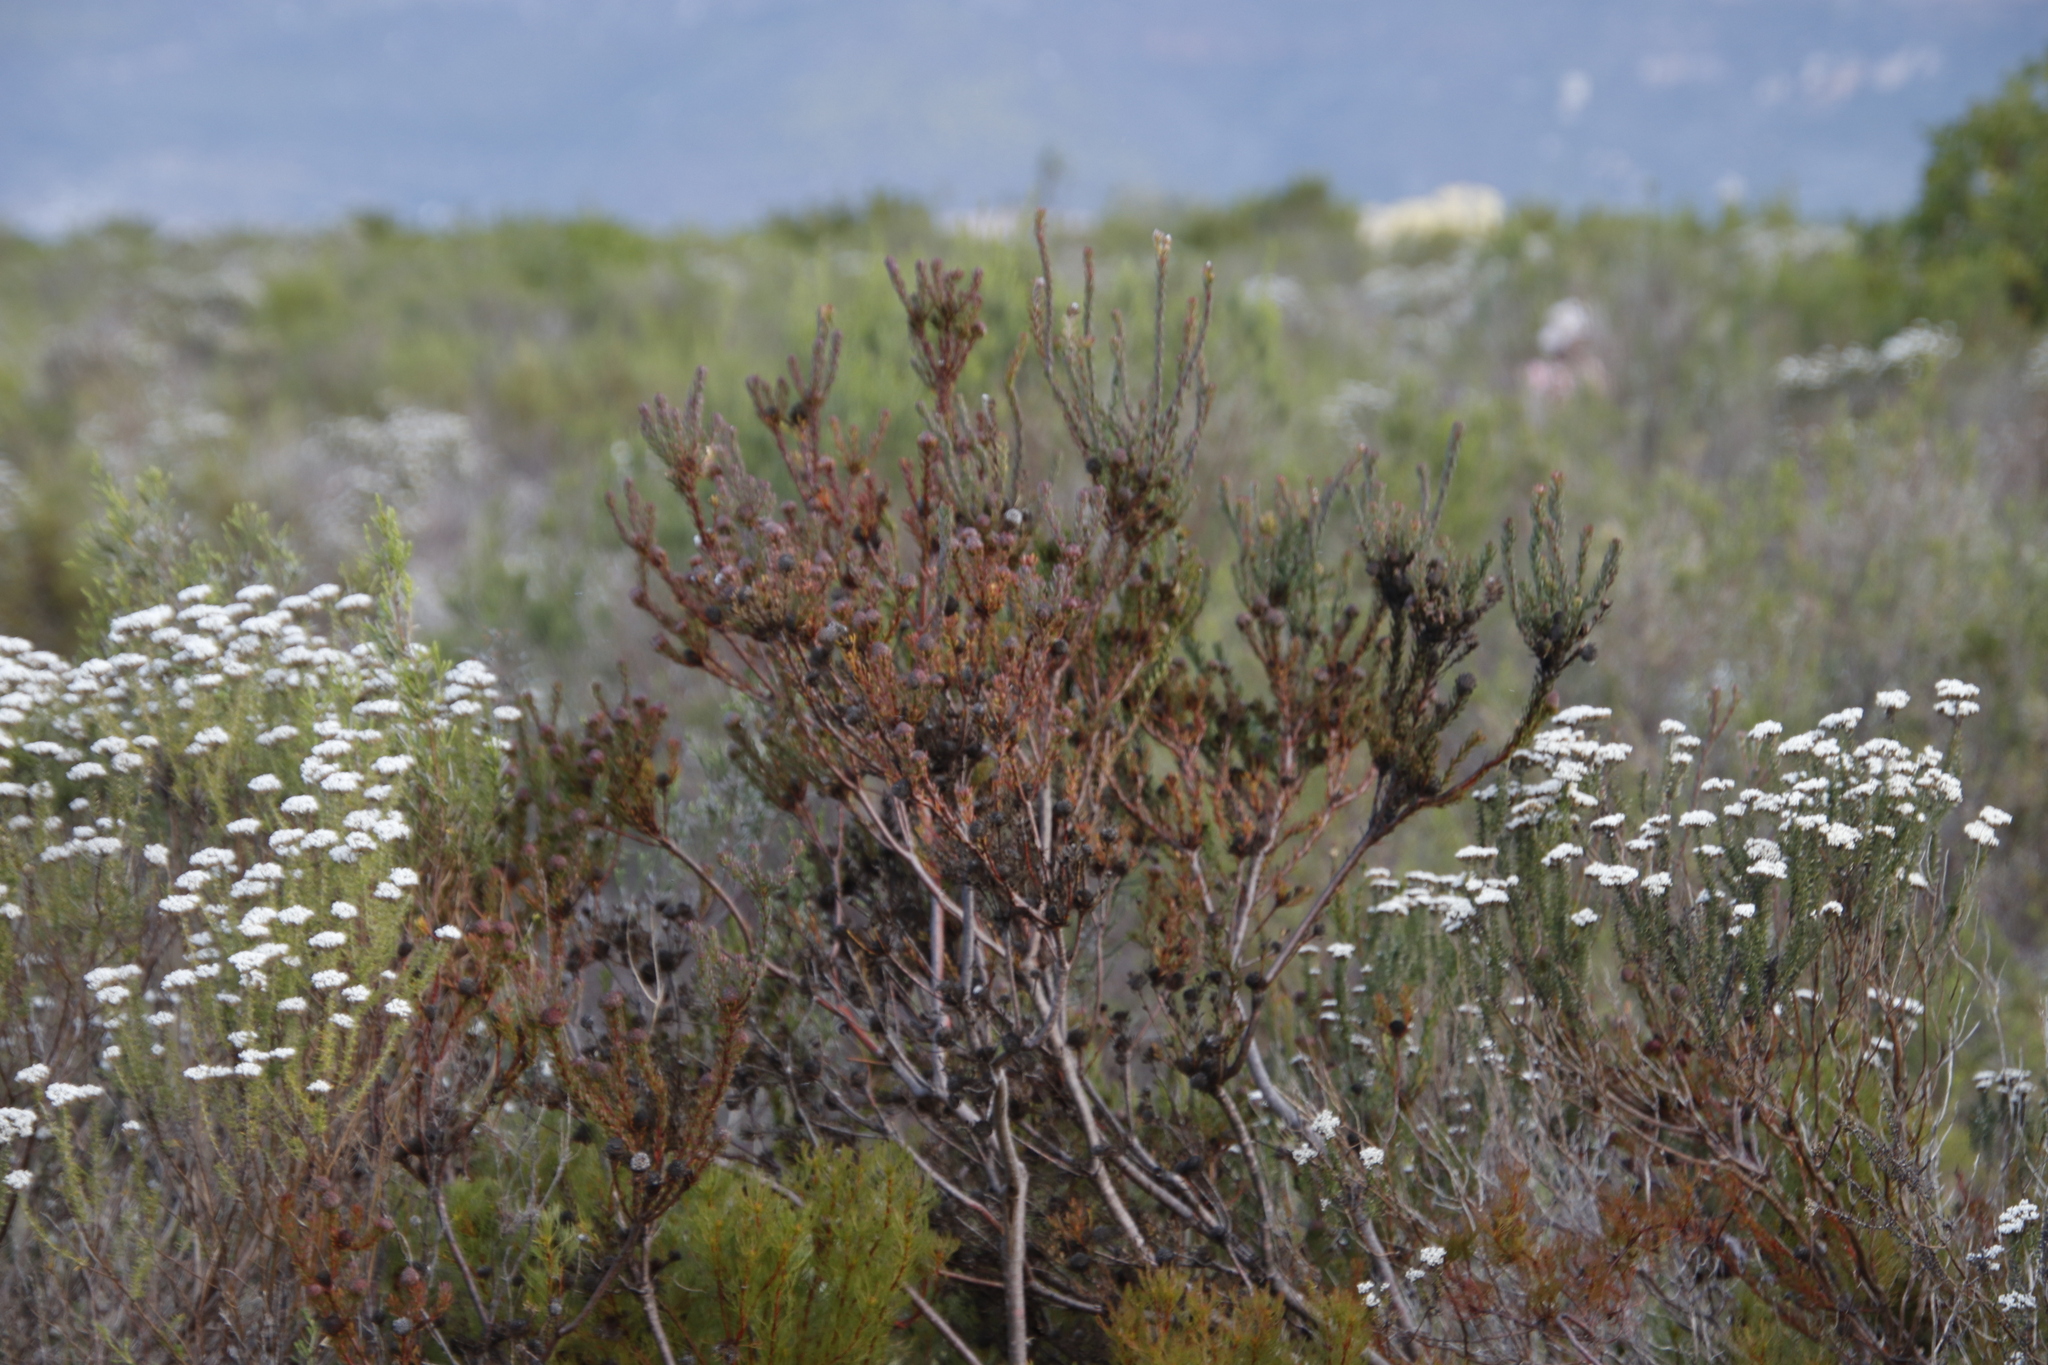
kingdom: Plantae
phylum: Tracheophyta
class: Magnoliopsida
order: Proteales
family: Proteaceae
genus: Leucadendron
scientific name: Leucadendron levisanus
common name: Cape flats conebush
